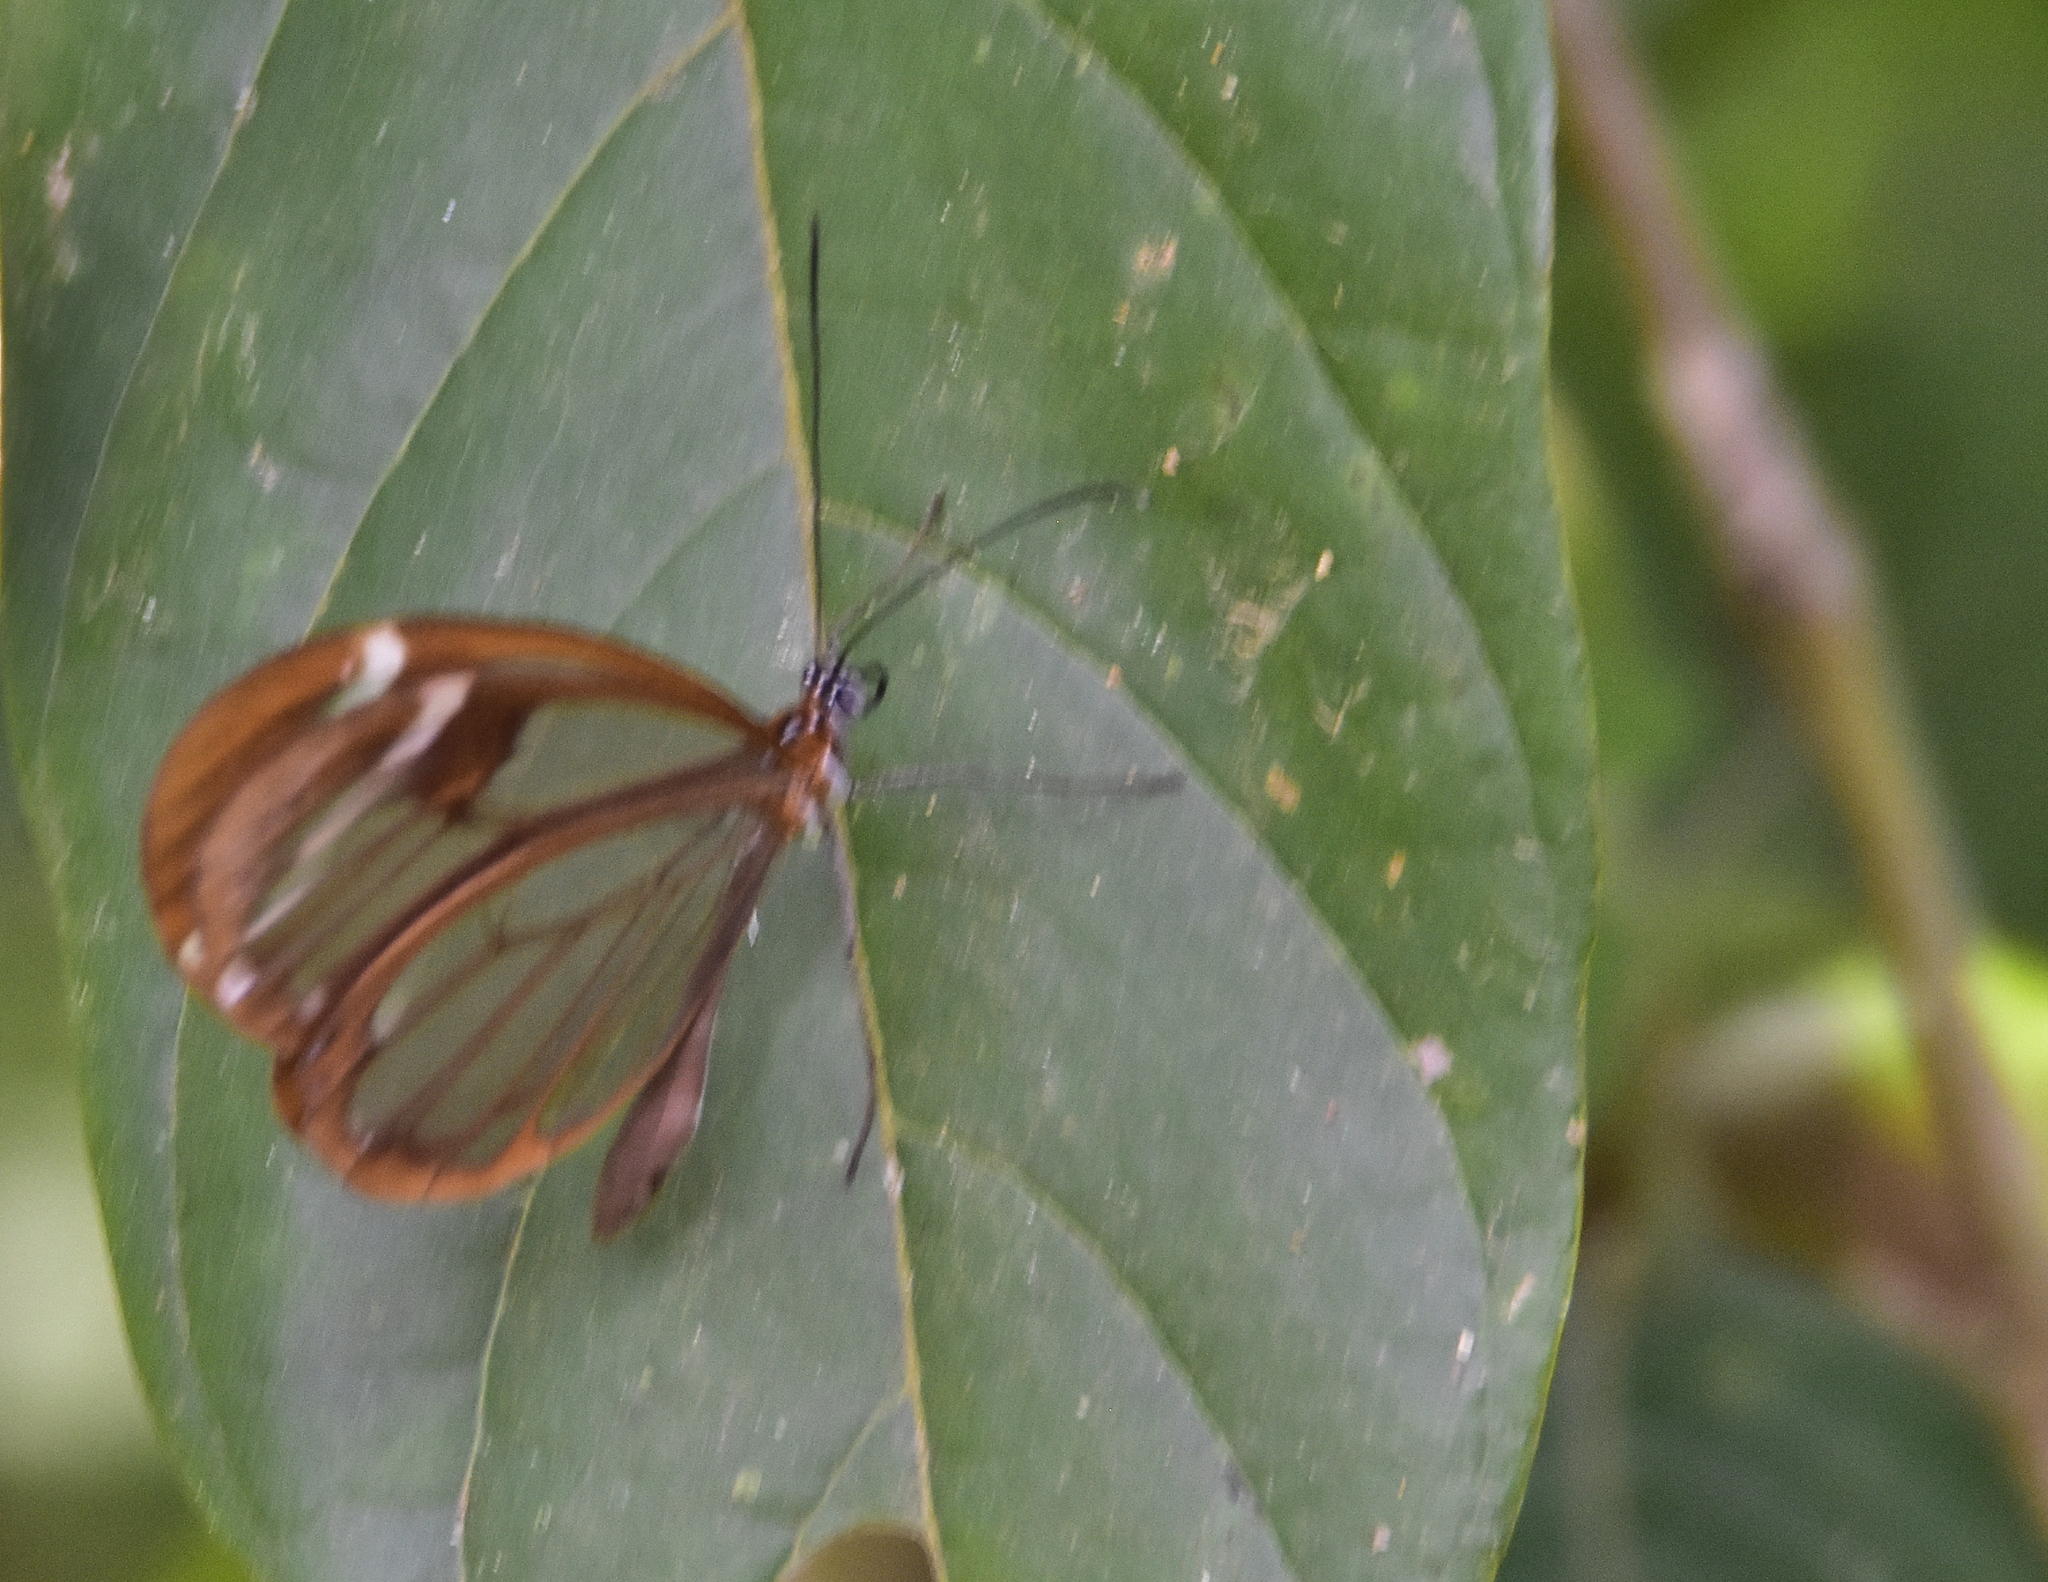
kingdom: Animalia
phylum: Arthropoda
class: Insecta
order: Lepidoptera
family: Nymphalidae
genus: Greta
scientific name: Greta morgane
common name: Thick-tipped greta
